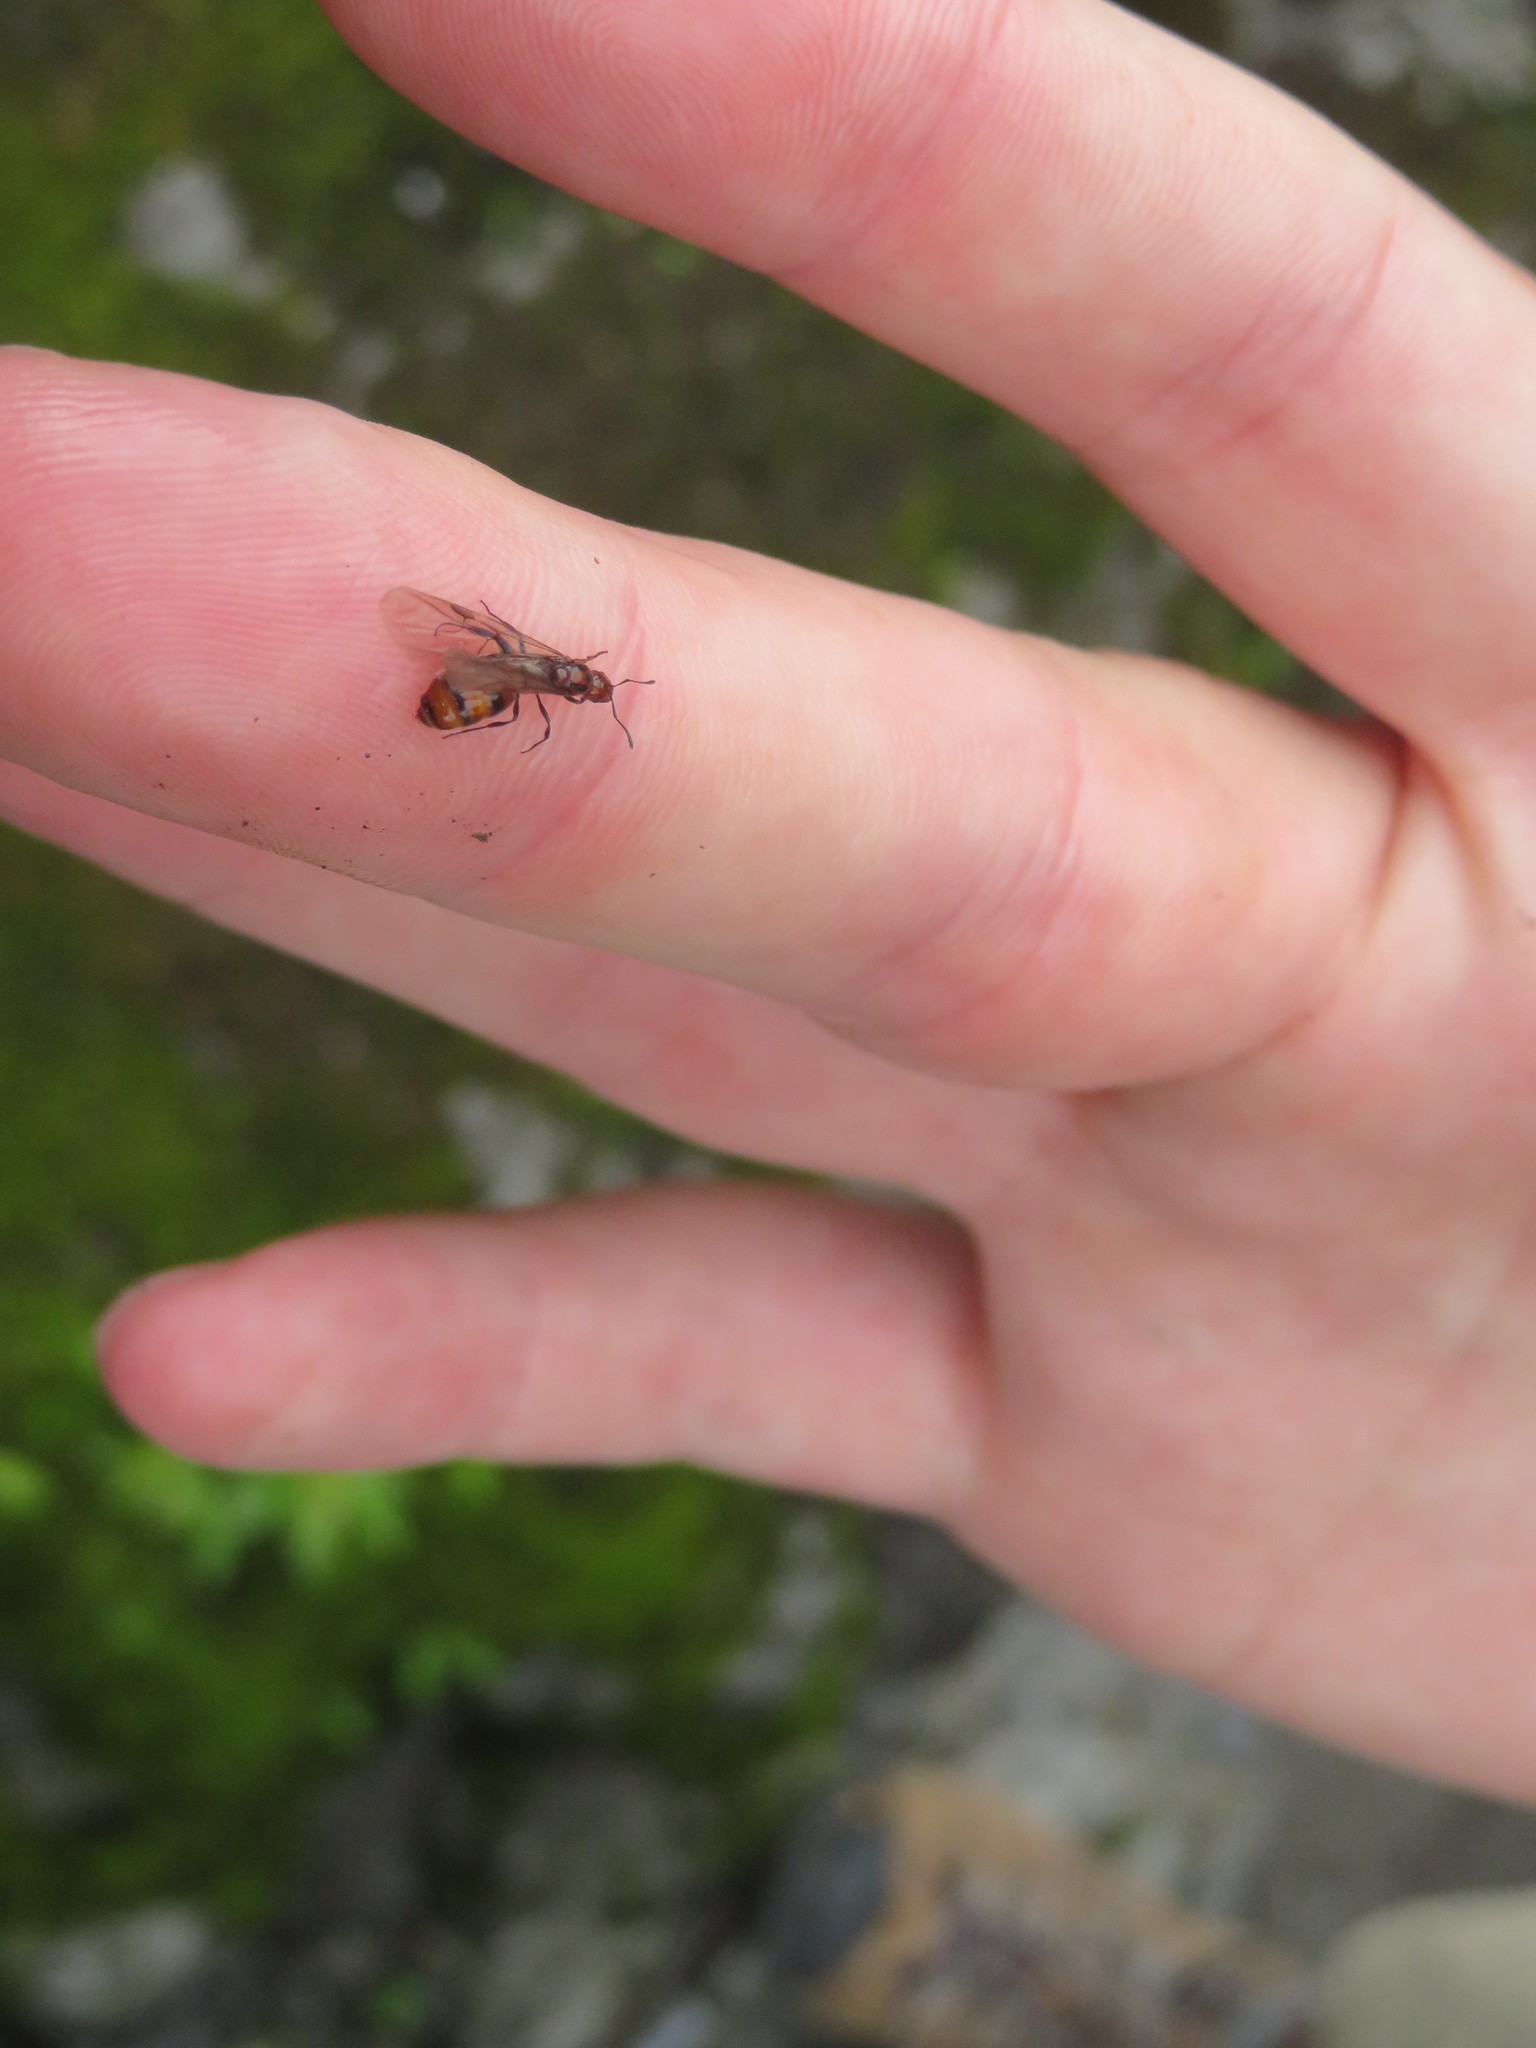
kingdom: Animalia
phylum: Arthropoda
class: Insecta
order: Hymenoptera
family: Formicidae
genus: Monomorium
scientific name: Monomorium antarcticum
